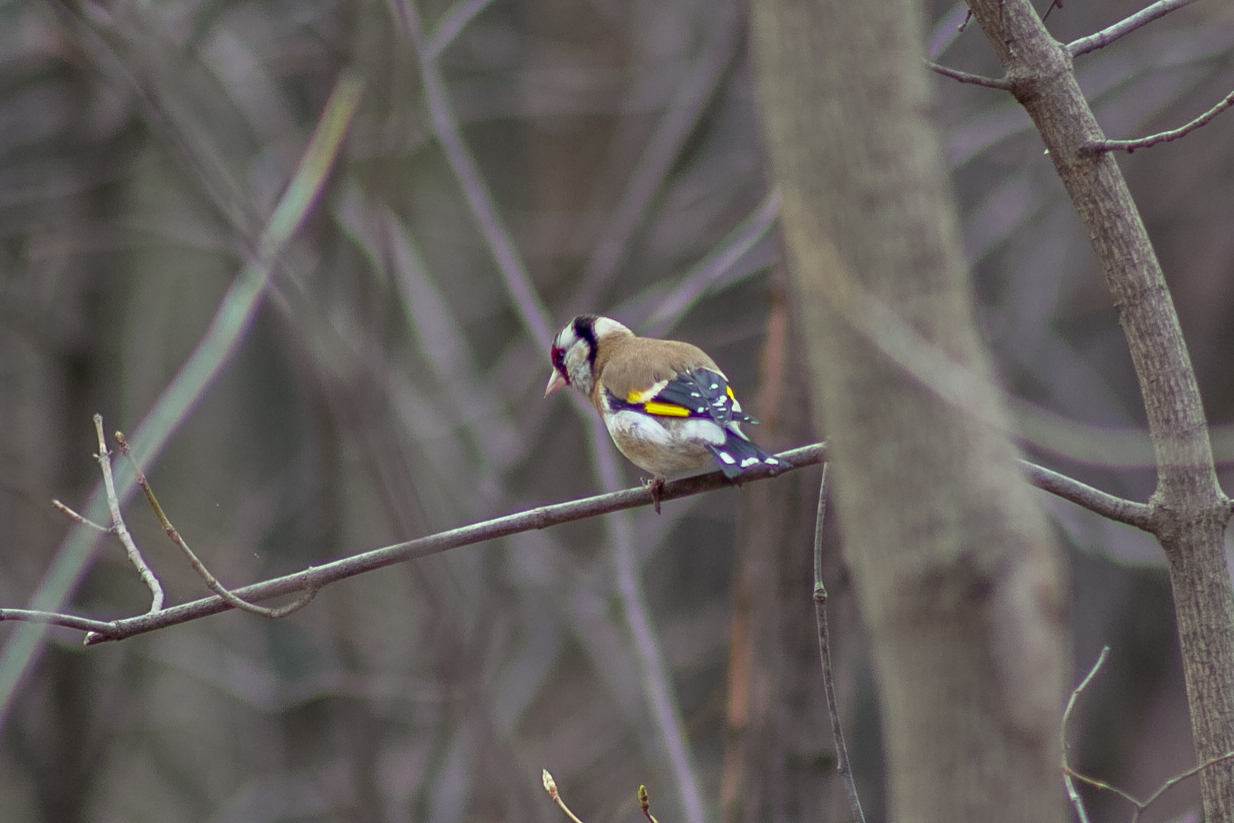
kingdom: Animalia
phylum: Chordata
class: Aves
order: Passeriformes
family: Fringillidae
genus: Carduelis
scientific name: Carduelis carduelis
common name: European goldfinch
